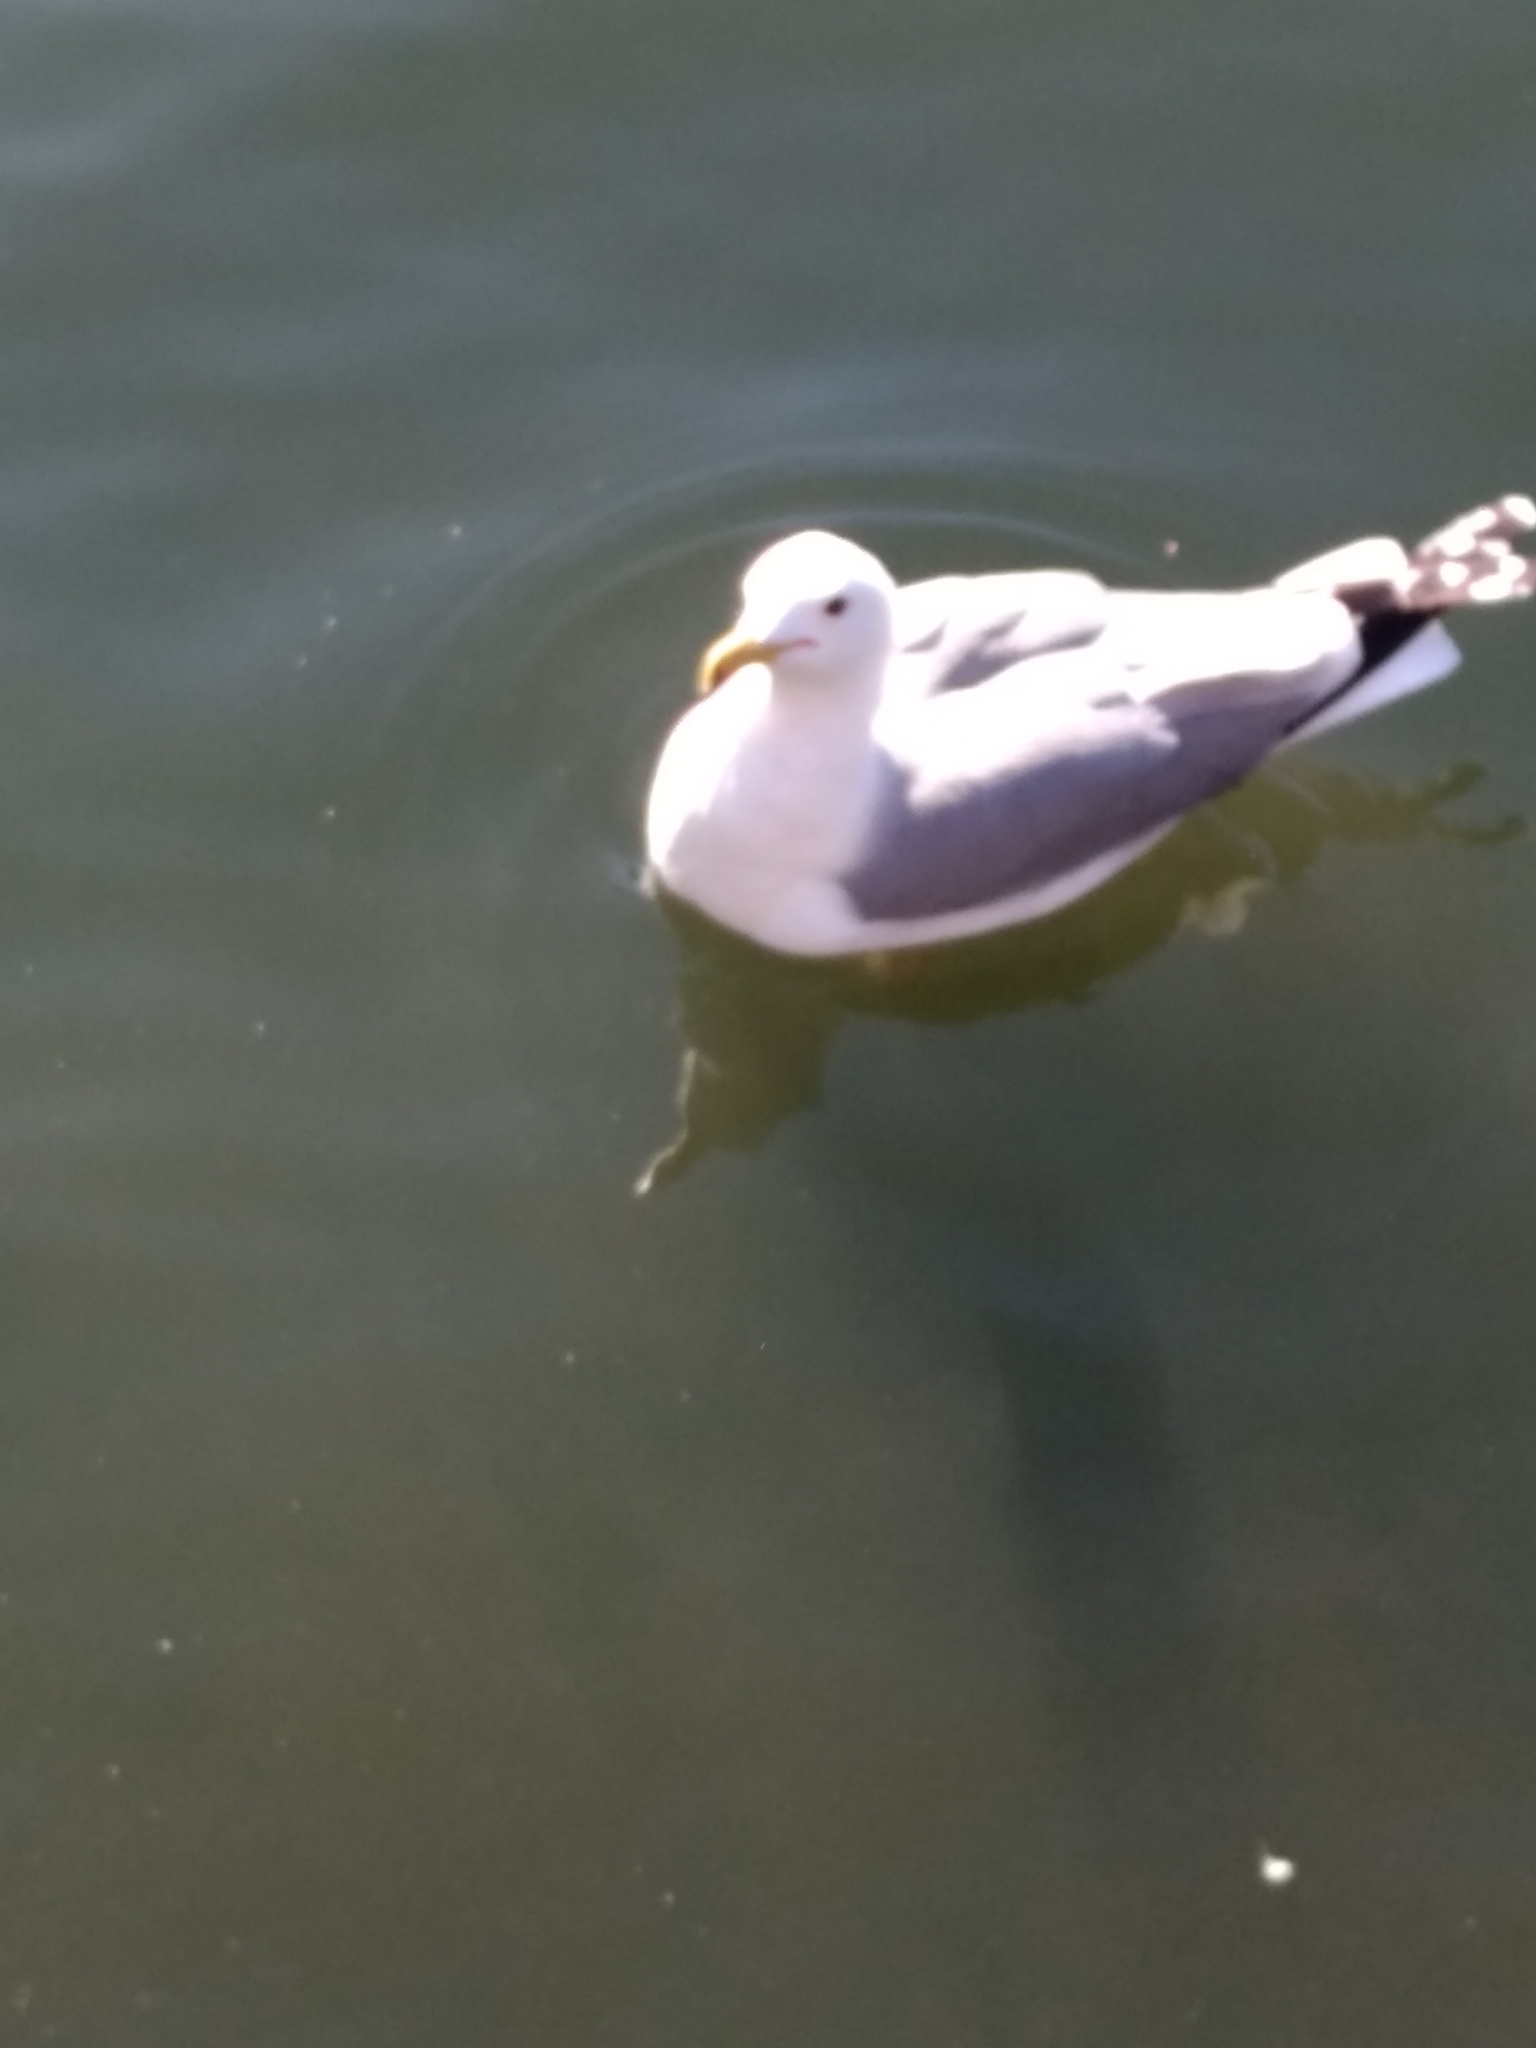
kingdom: Animalia
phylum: Chordata
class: Aves
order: Charadriiformes
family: Laridae
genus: Larus
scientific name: Larus californicus
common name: California gull
